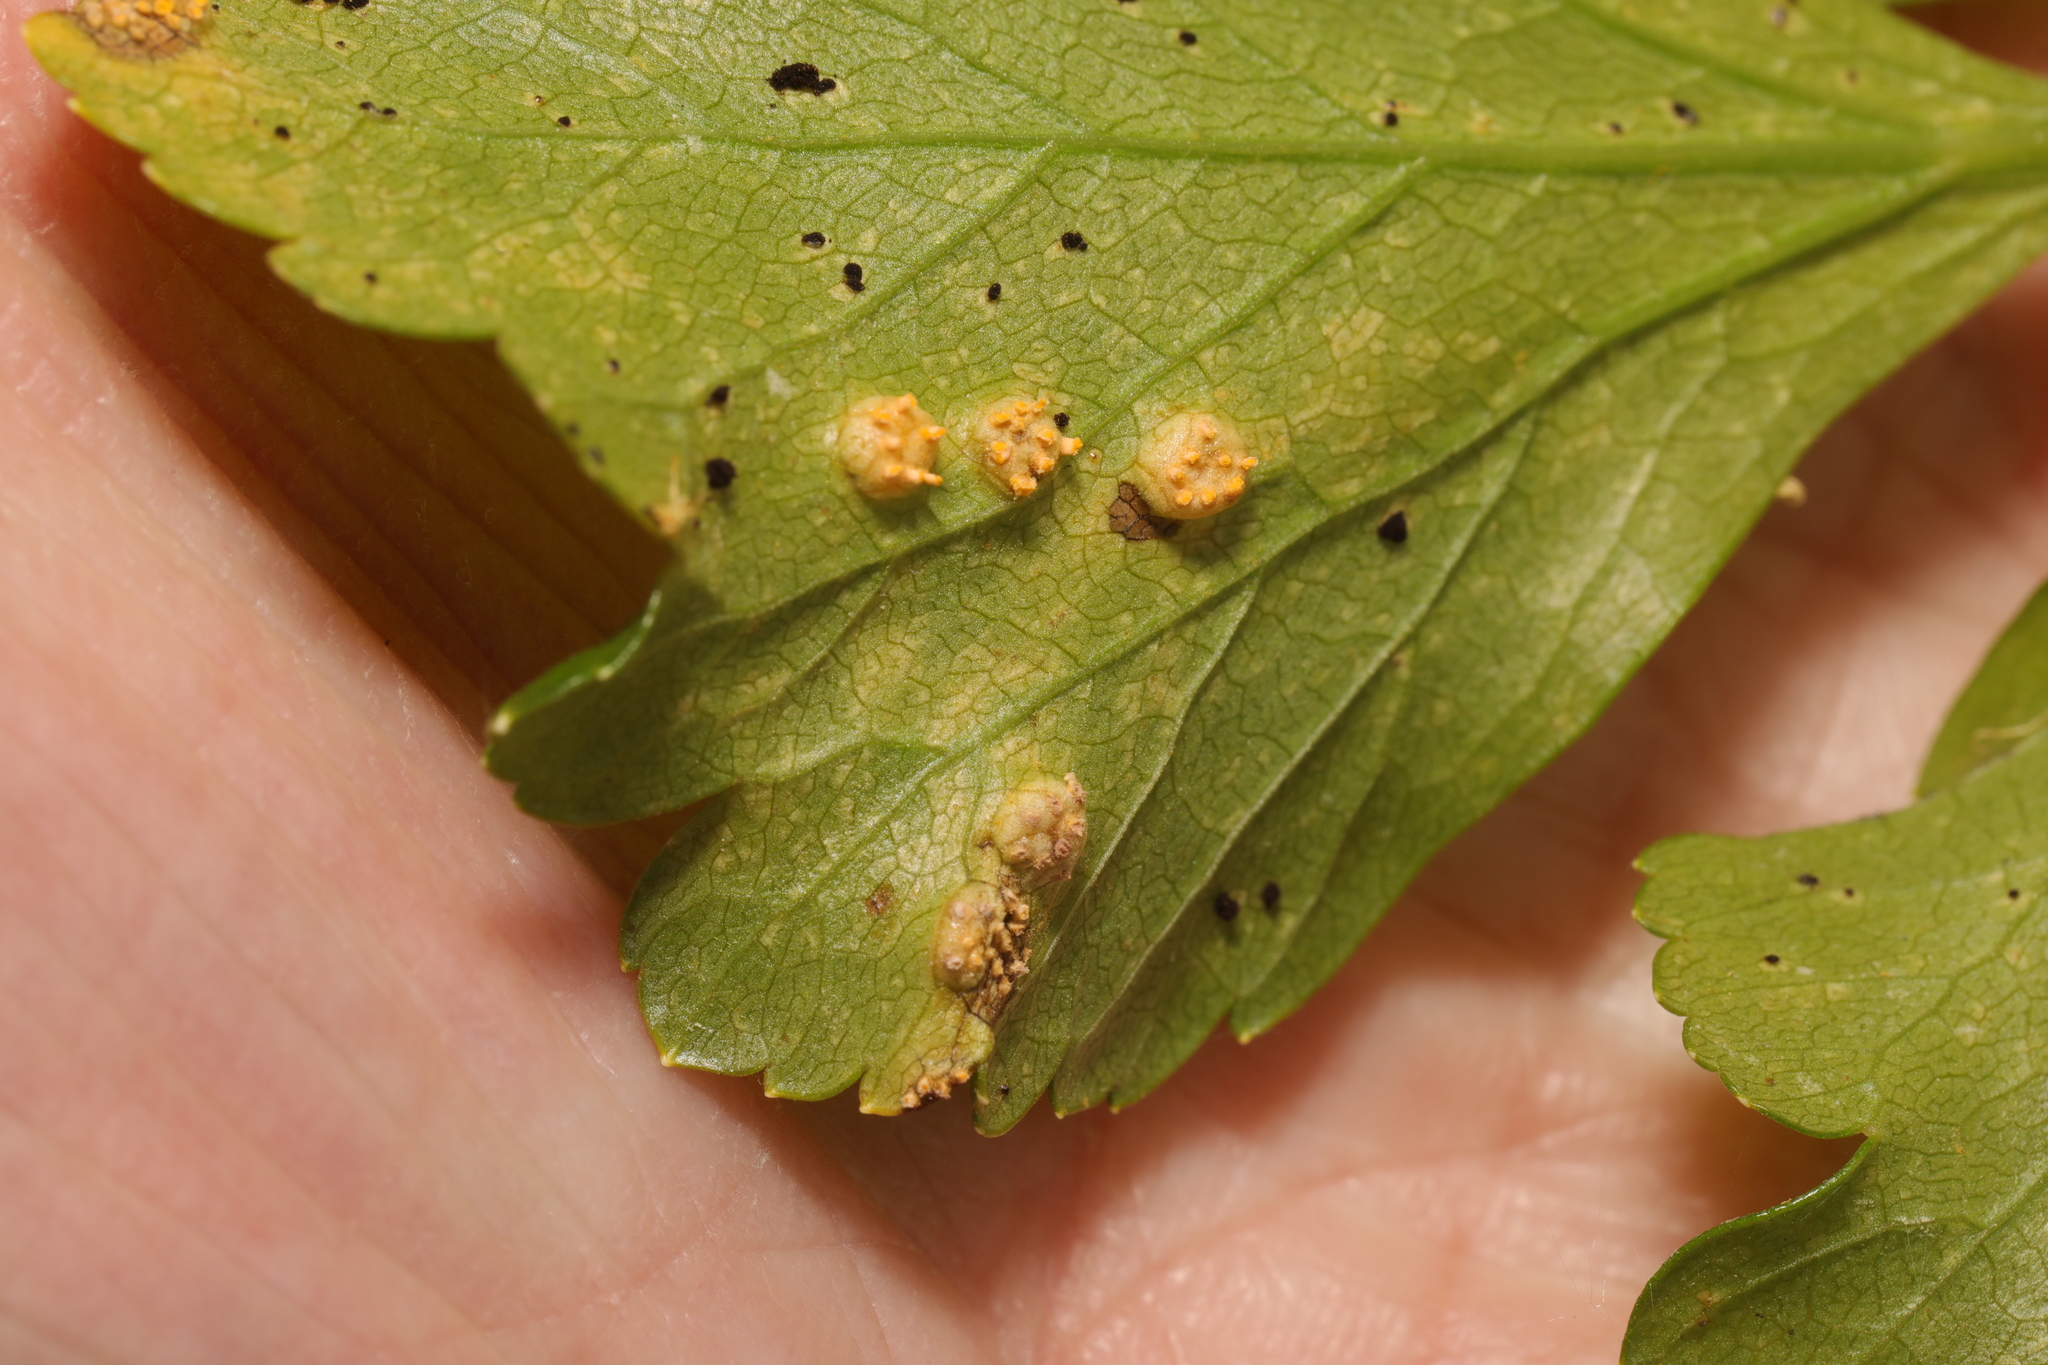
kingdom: Fungi
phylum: Basidiomycota
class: Pucciniomycetes
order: Pucciniales
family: Pucciniaceae
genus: Puccinia
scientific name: Puccinia smyrnii
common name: Alexanders rust
